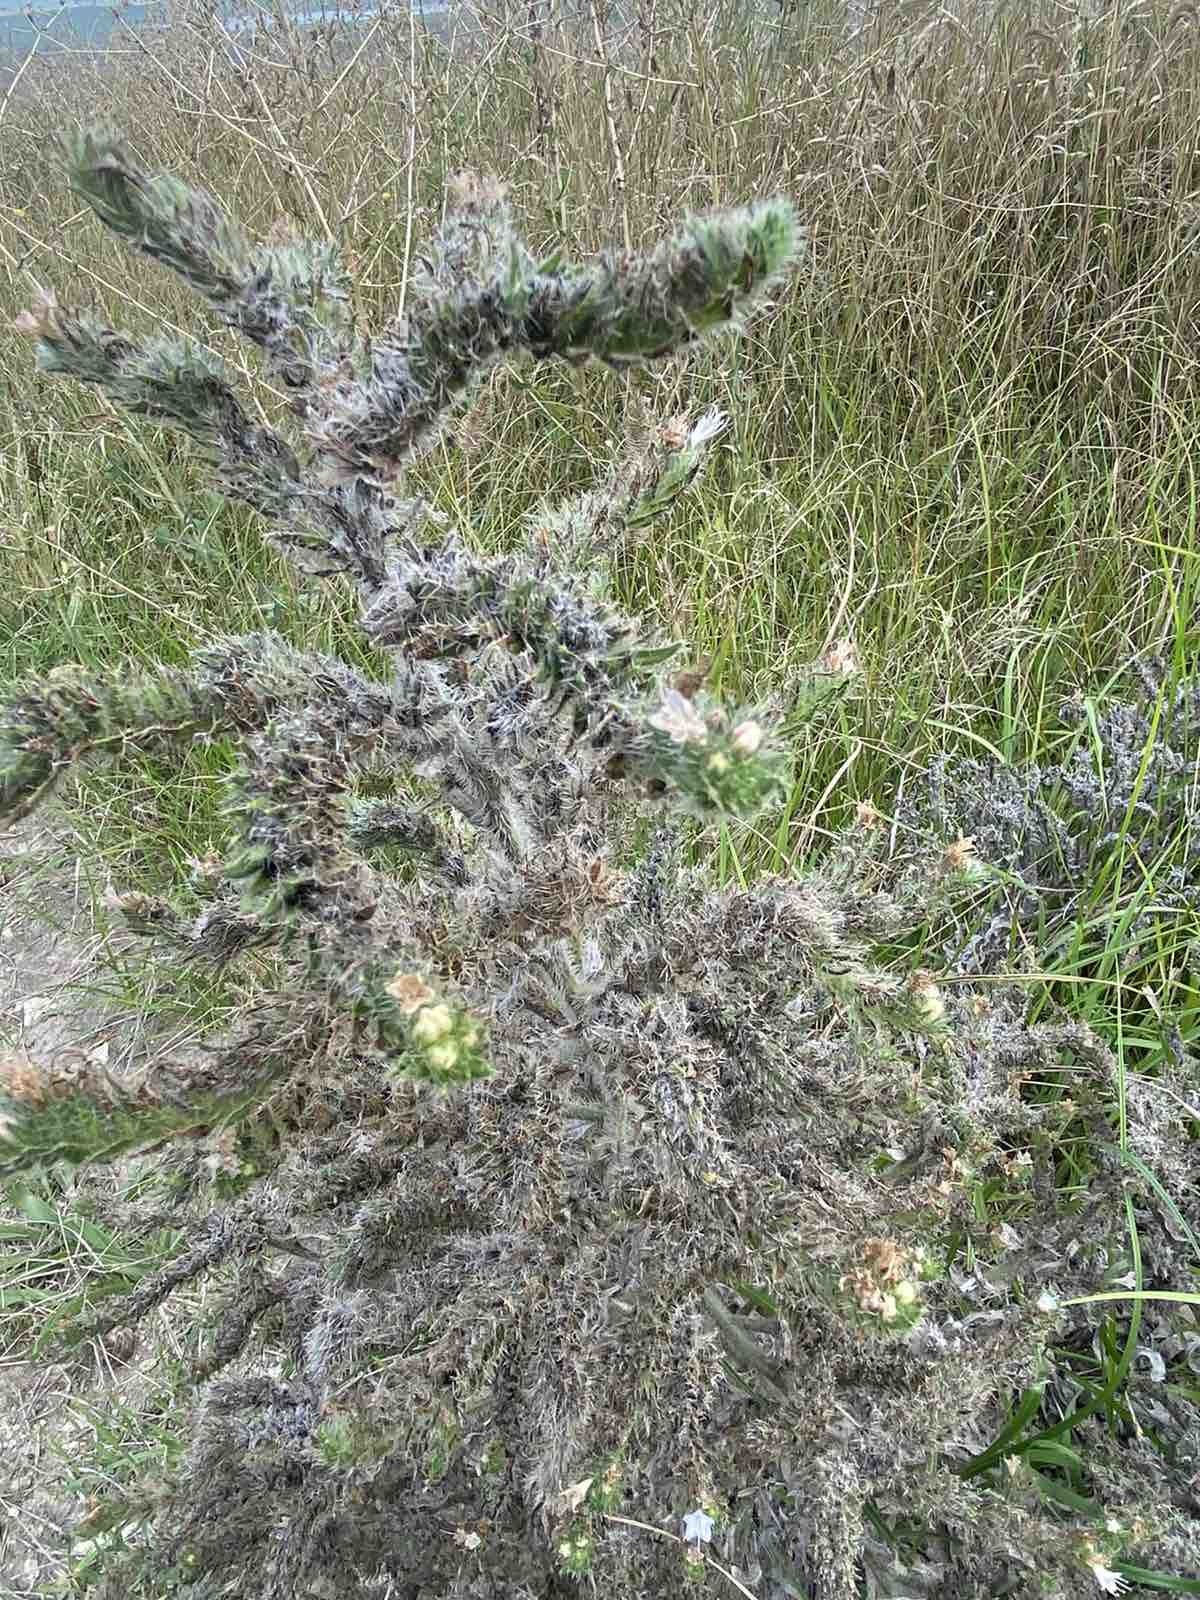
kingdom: Plantae
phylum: Tracheophyta
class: Magnoliopsida
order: Boraginales
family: Boraginaceae
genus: Echium
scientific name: Echium italicum
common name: Italian viper's bugloss
